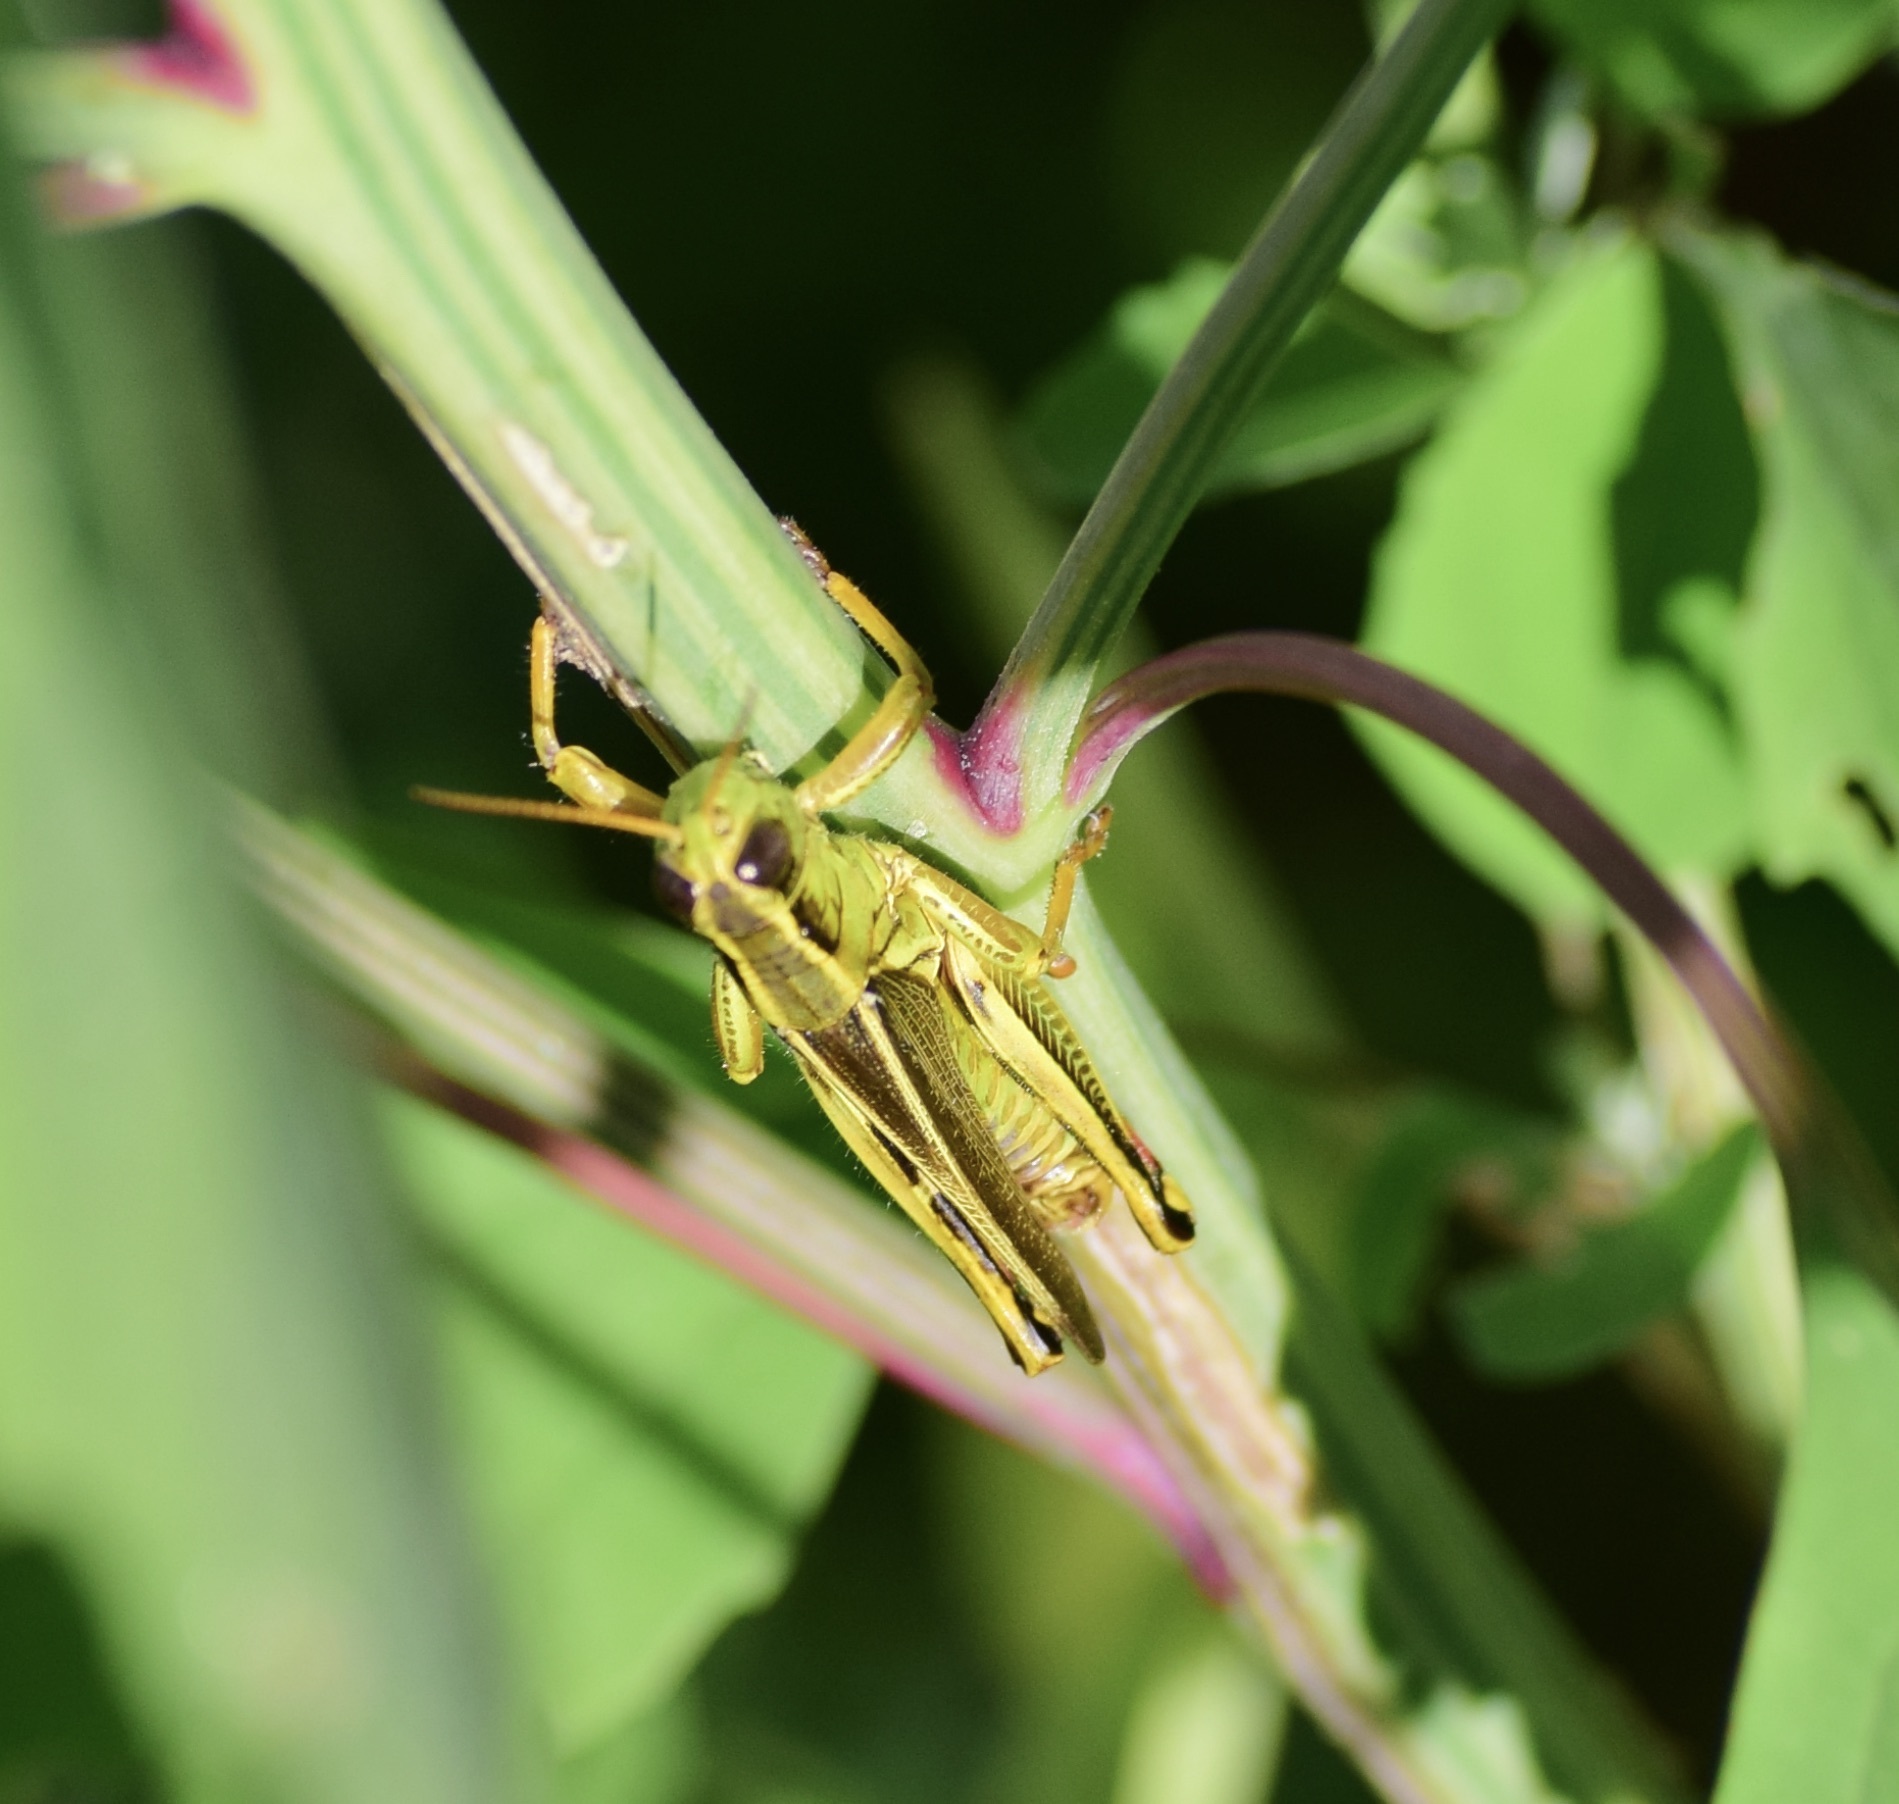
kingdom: Animalia
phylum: Arthropoda
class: Insecta
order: Orthoptera
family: Acrididae
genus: Melanoplus
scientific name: Melanoplus bivittatus
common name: Two-striped grasshopper
